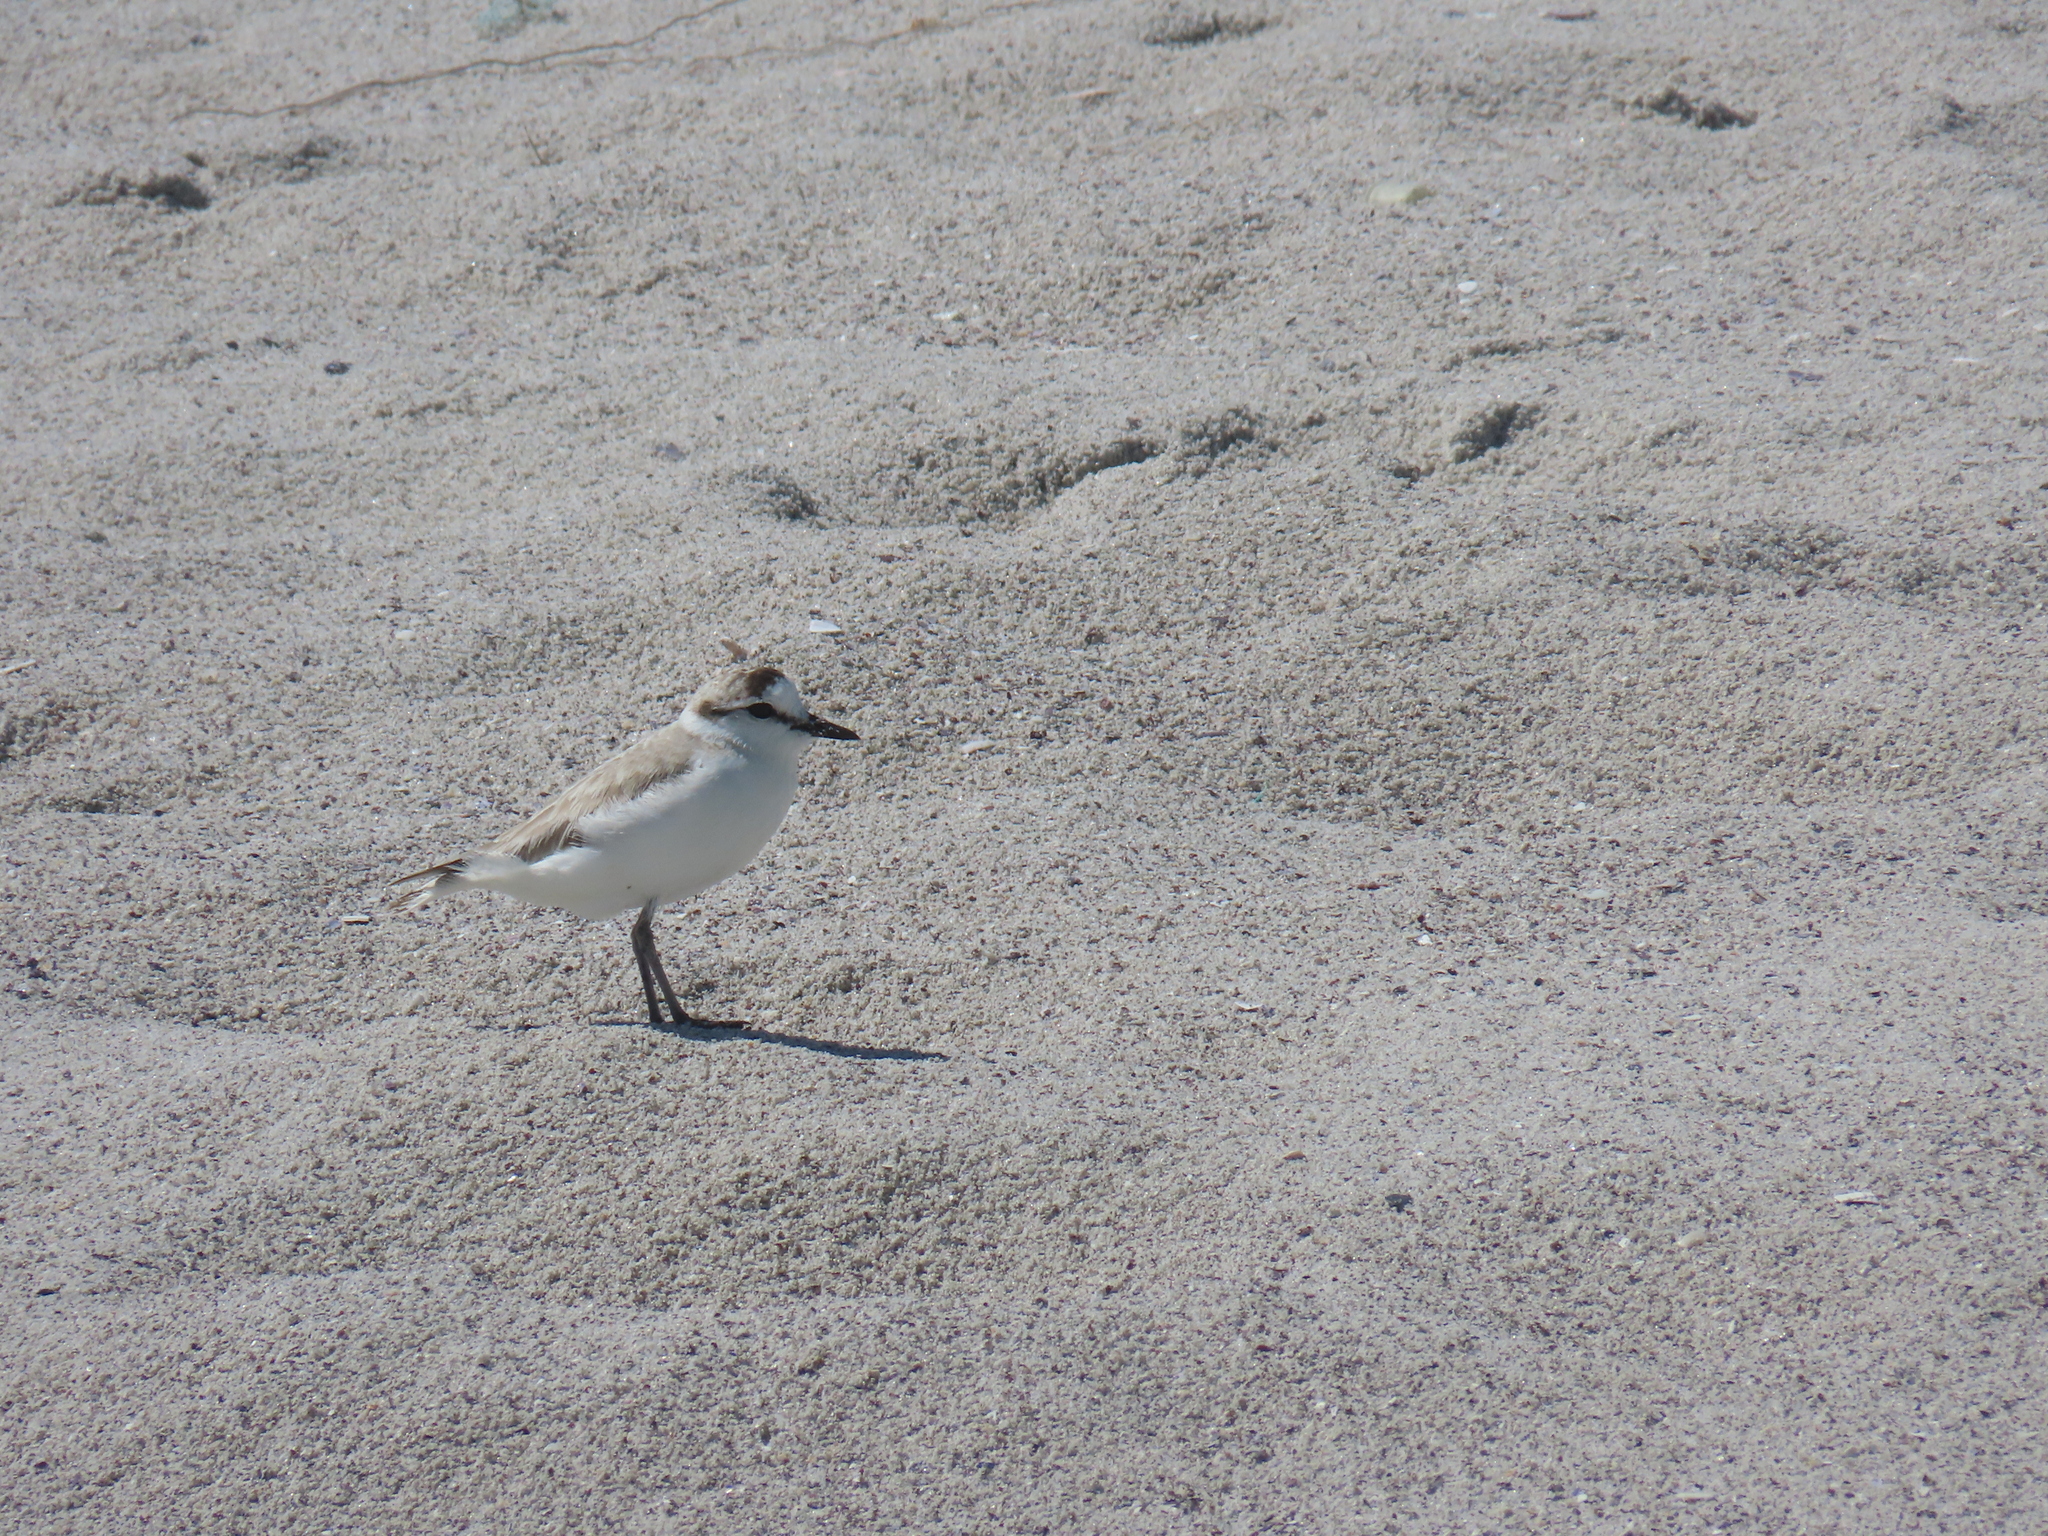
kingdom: Animalia
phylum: Chordata
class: Aves
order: Charadriiformes
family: Charadriidae
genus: Anarhynchus
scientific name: Anarhynchus
